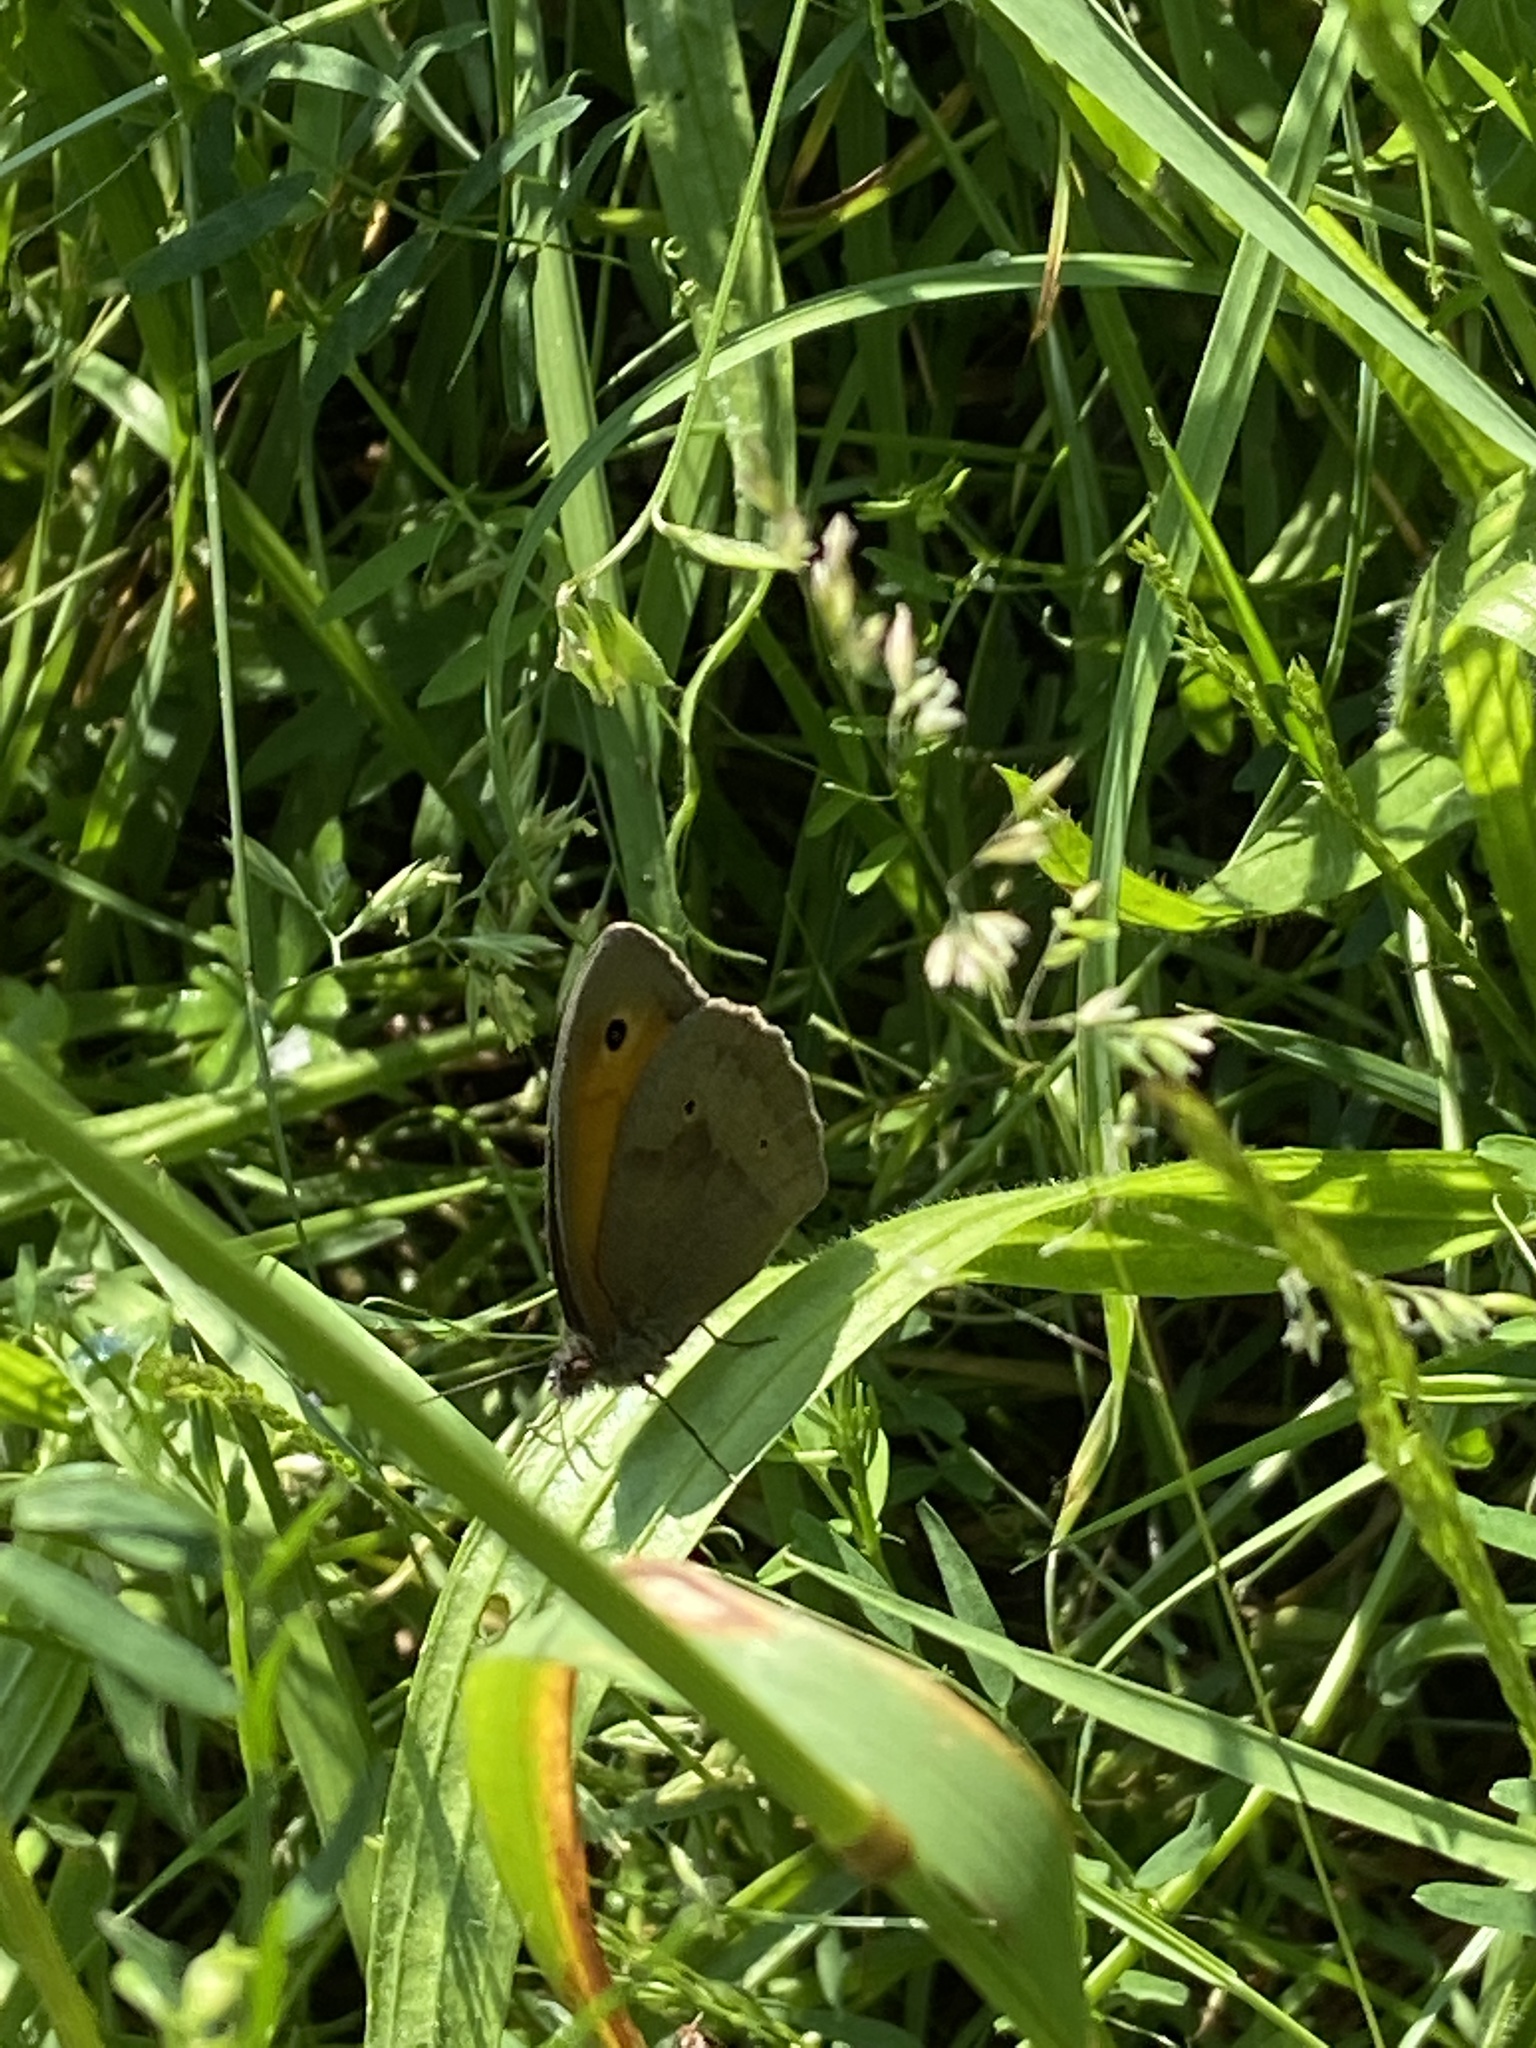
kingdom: Animalia
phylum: Arthropoda
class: Insecta
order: Lepidoptera
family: Nymphalidae
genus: Maniola
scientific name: Maniola jurtina
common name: Meadow brown
